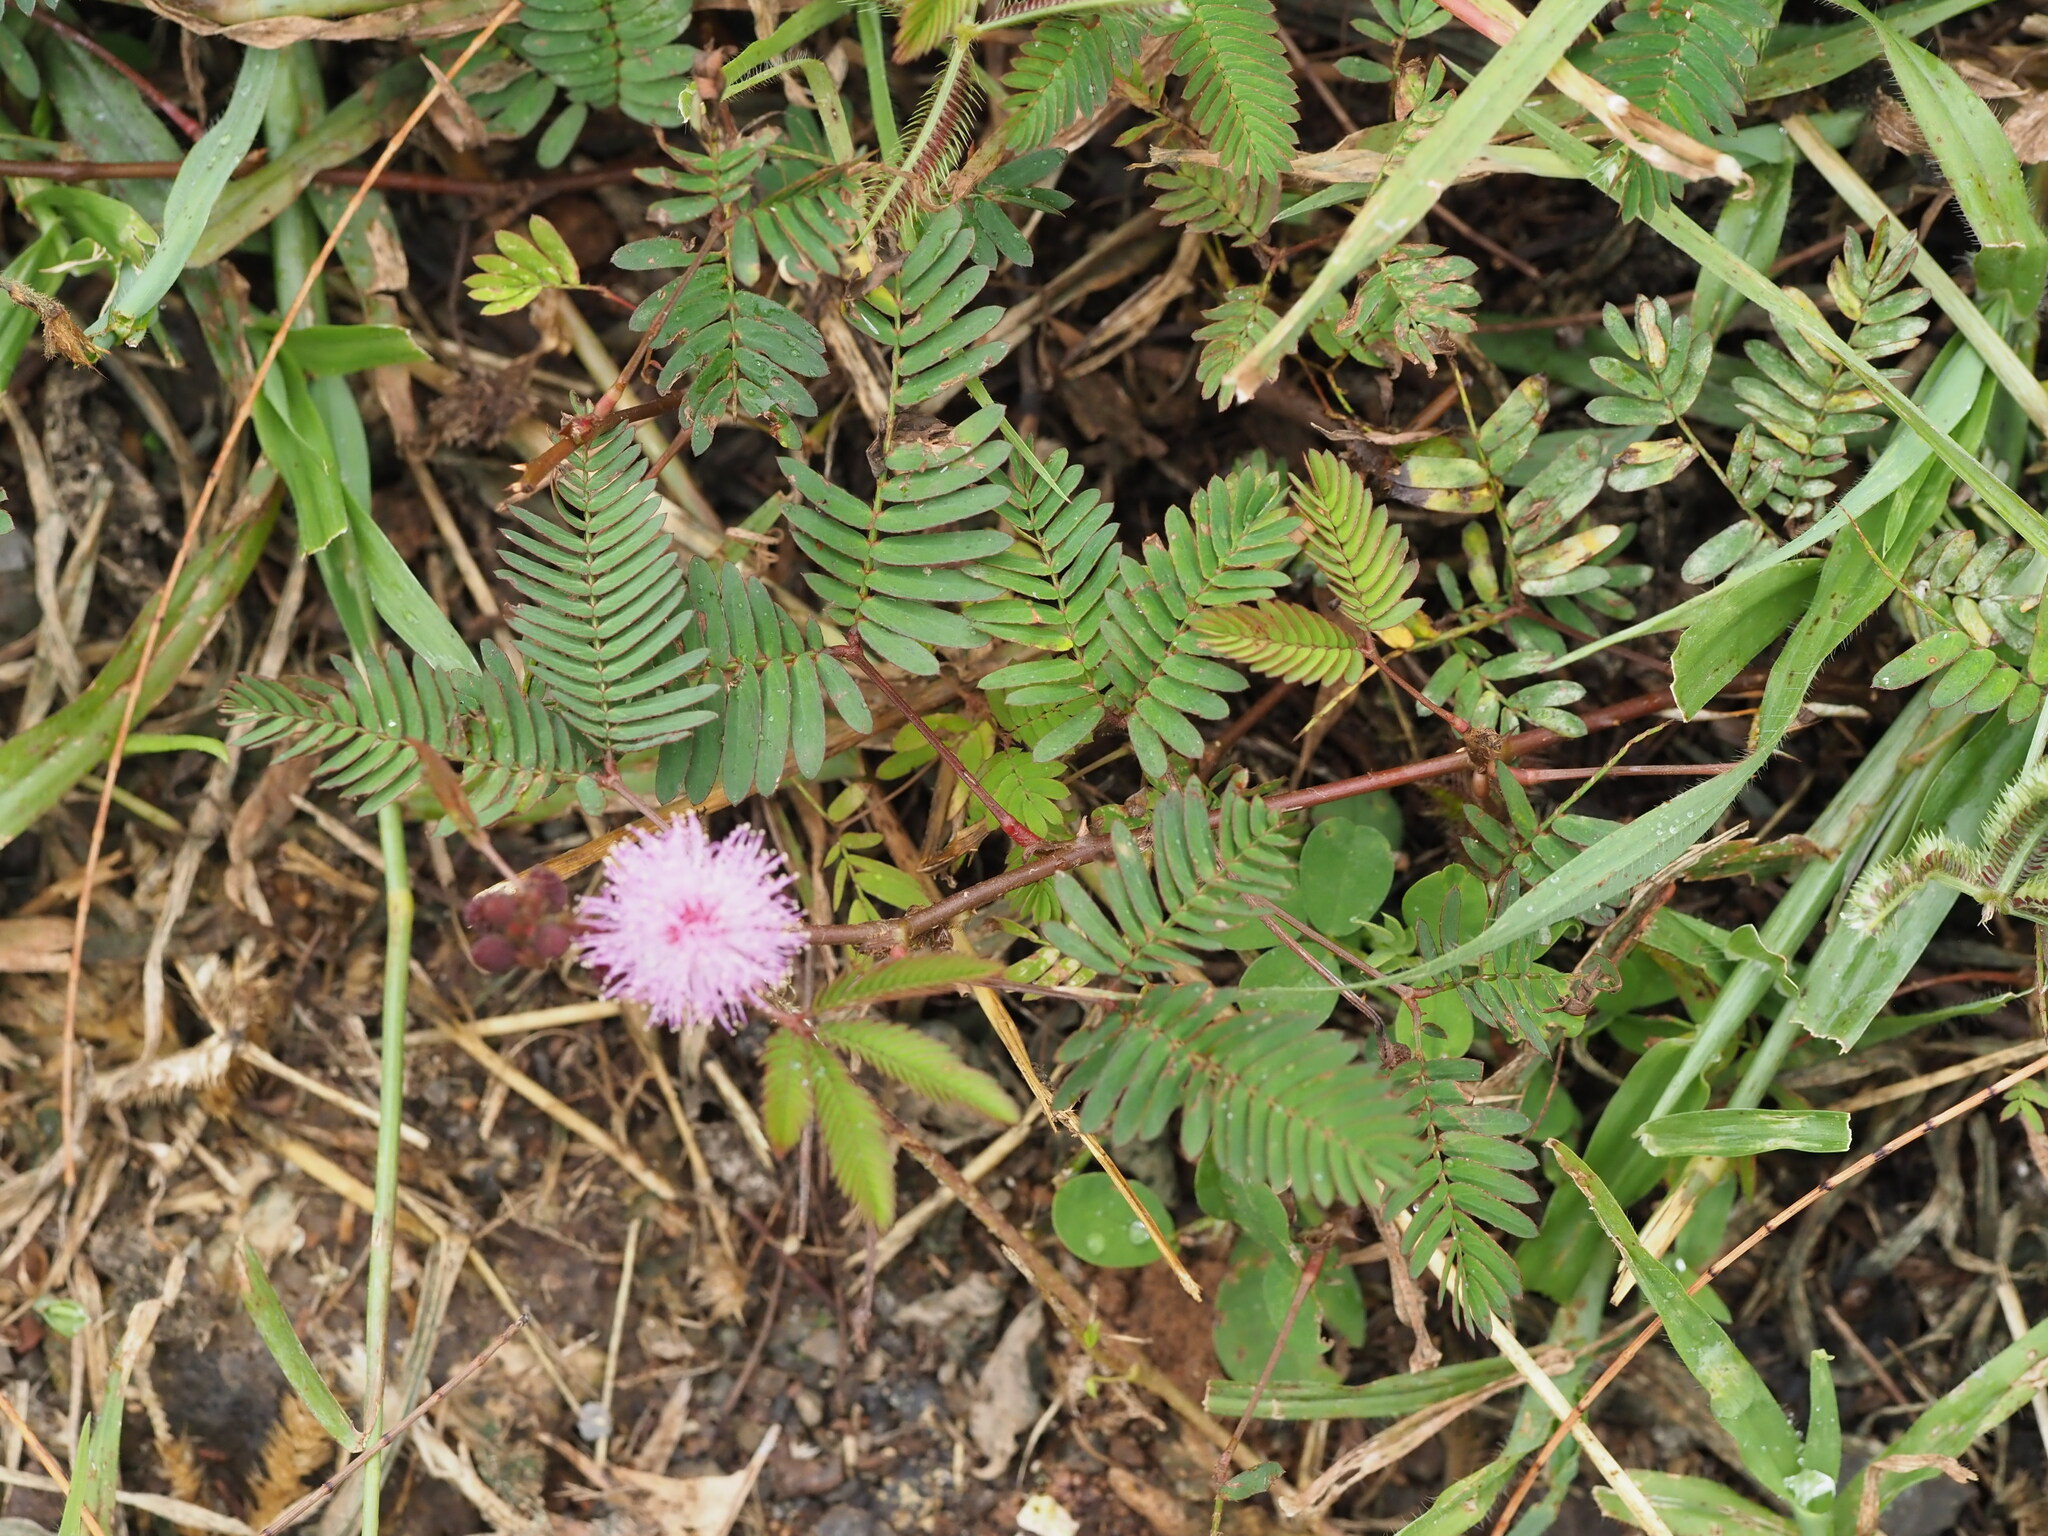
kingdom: Plantae
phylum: Tracheophyta
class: Magnoliopsida
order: Fabales
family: Fabaceae
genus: Mimosa
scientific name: Mimosa pudica
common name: Sensitive plant
